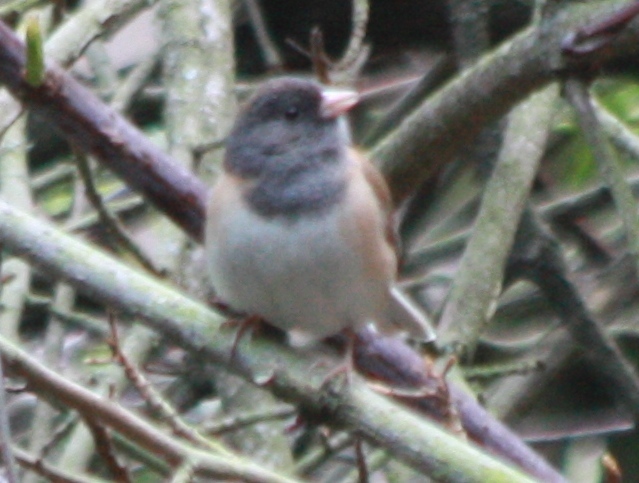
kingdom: Animalia
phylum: Chordata
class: Aves
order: Passeriformes
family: Passerellidae
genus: Junco
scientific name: Junco hyemalis
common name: Dark-eyed junco
